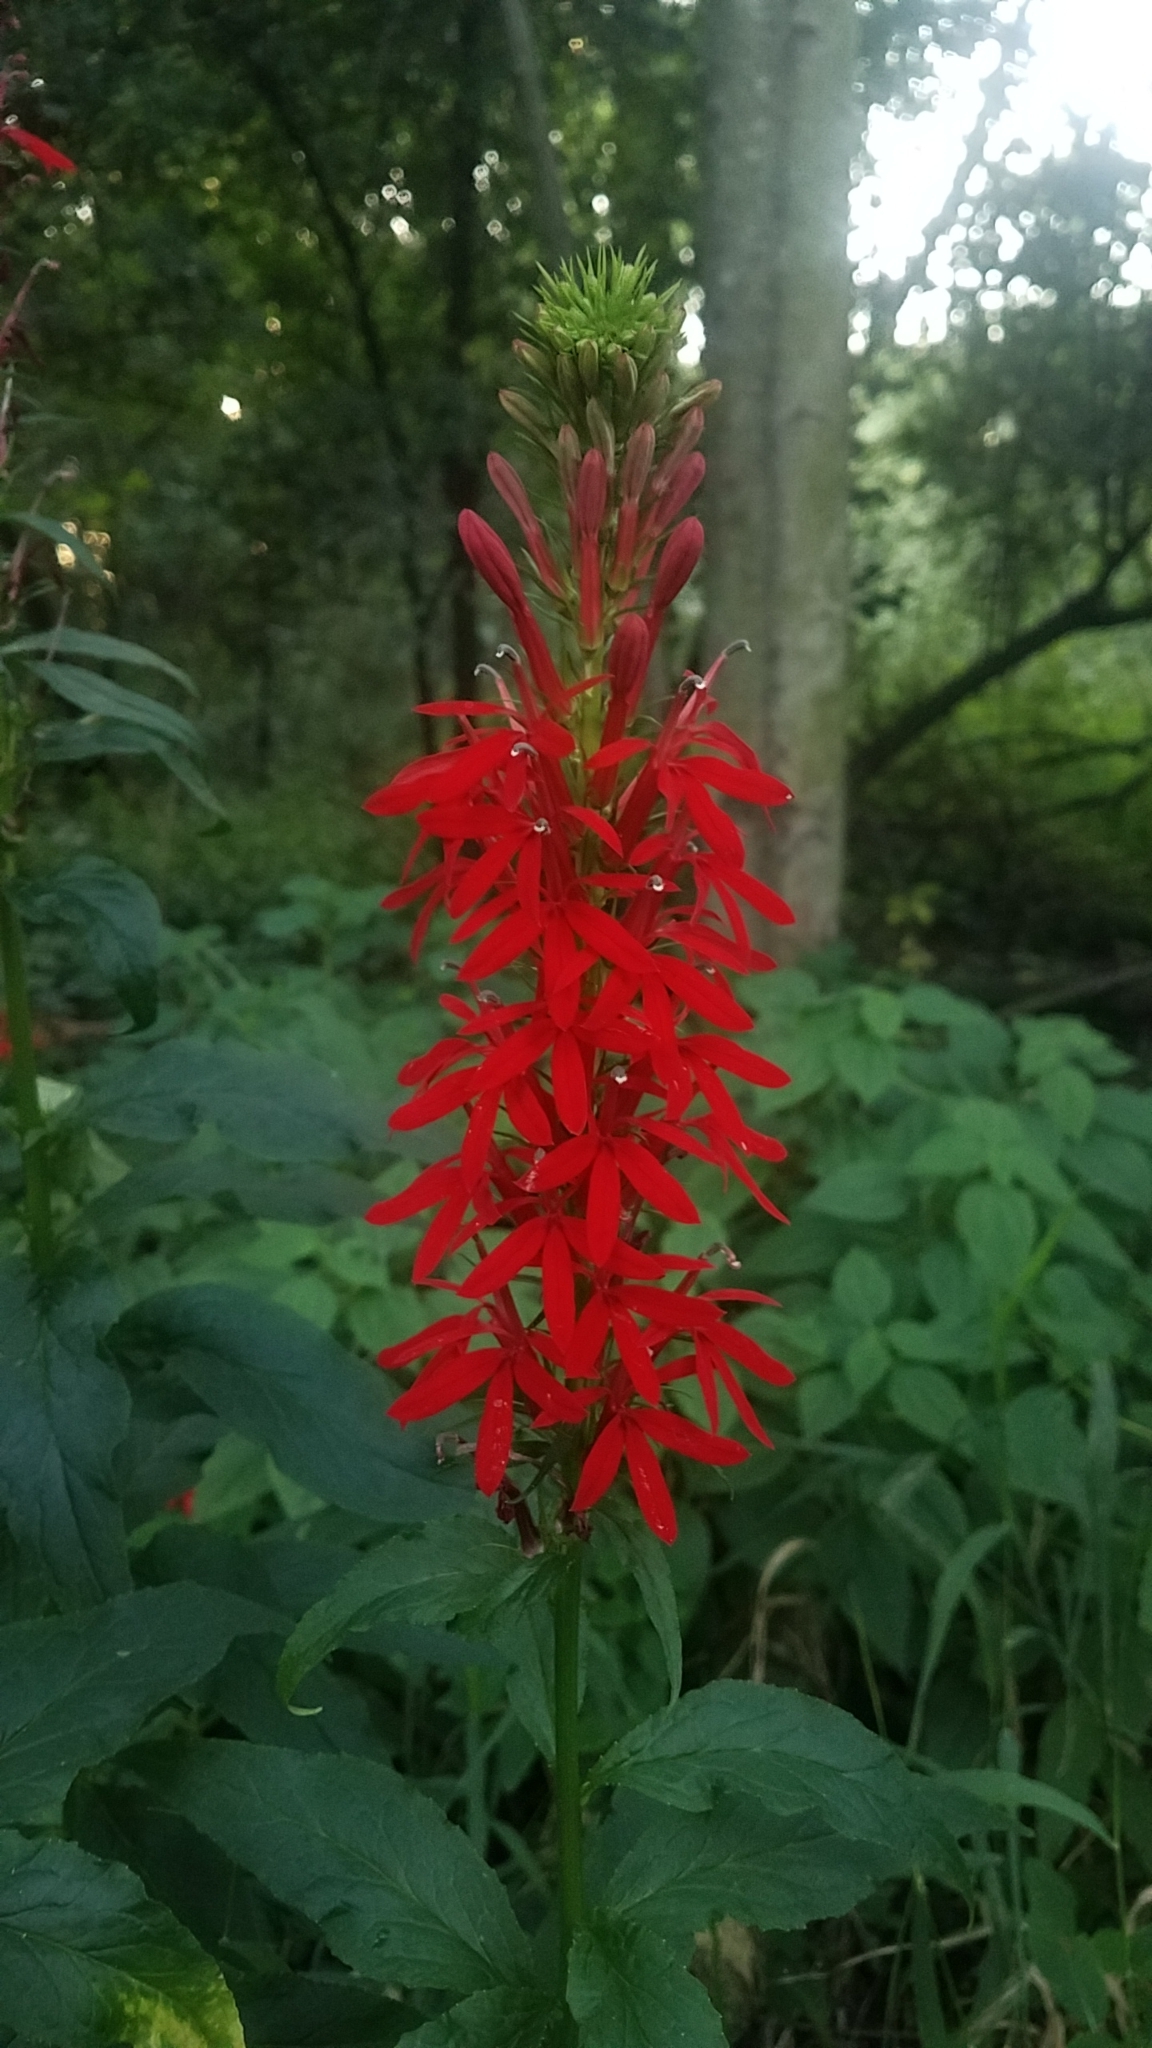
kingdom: Plantae
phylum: Tracheophyta
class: Magnoliopsida
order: Asterales
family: Campanulaceae
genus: Lobelia
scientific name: Lobelia cardinalis
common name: Cardinal flower
